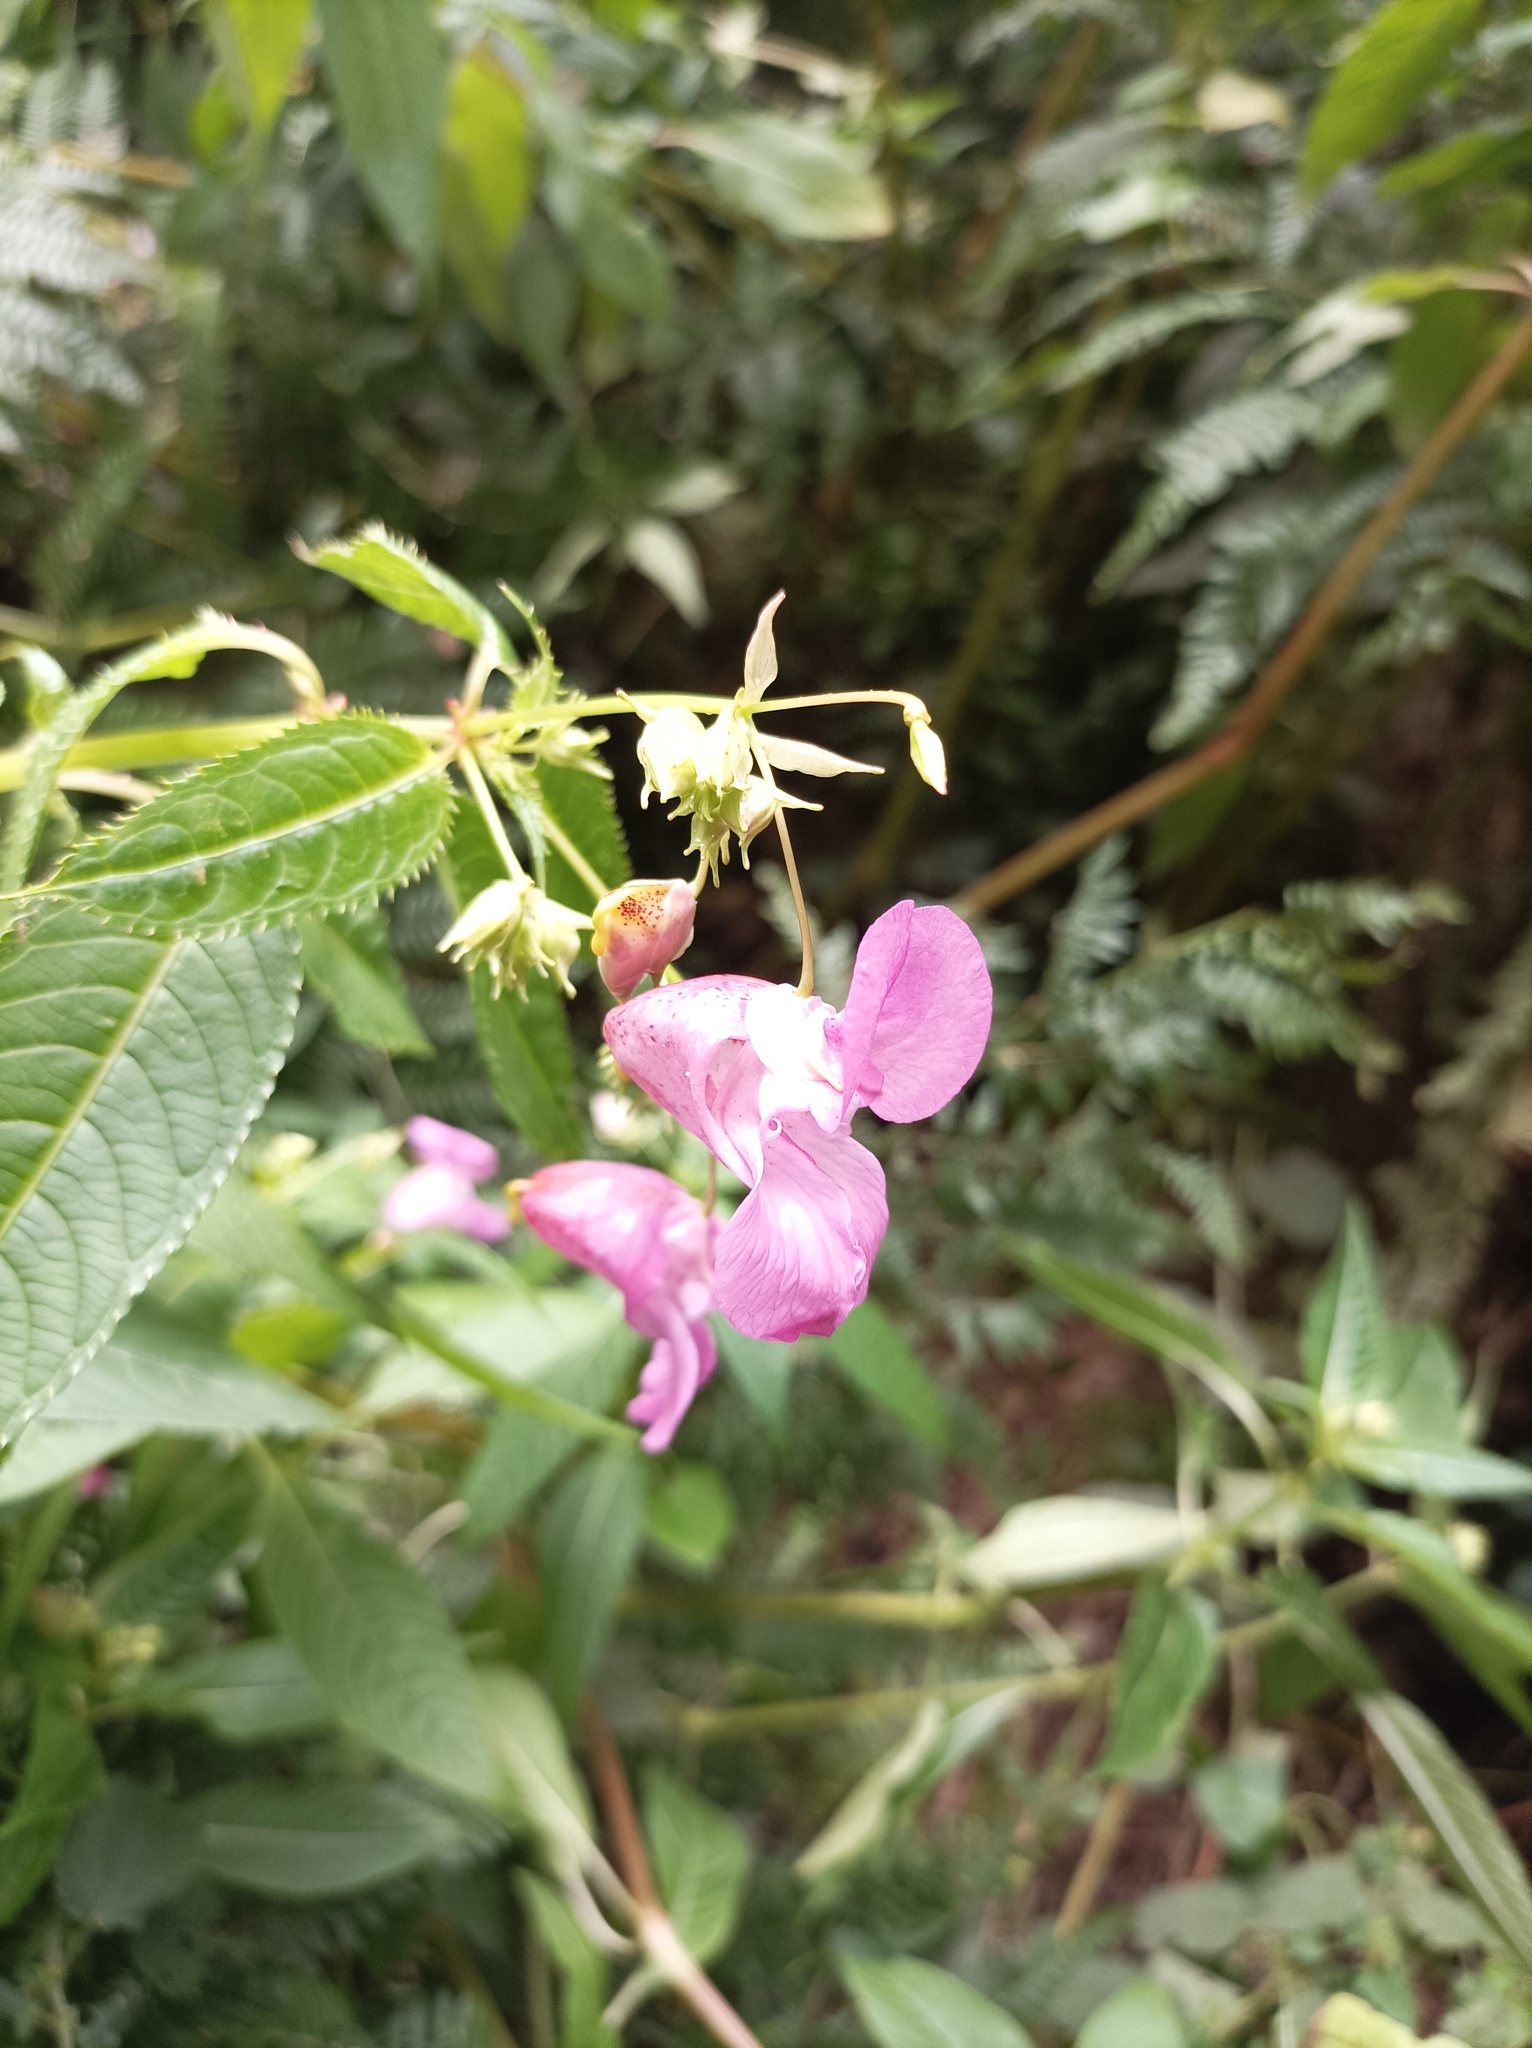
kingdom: Plantae
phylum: Tracheophyta
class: Magnoliopsida
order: Ericales
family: Balsaminaceae
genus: Impatiens
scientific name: Impatiens glandulifera
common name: Himalayan balsam
